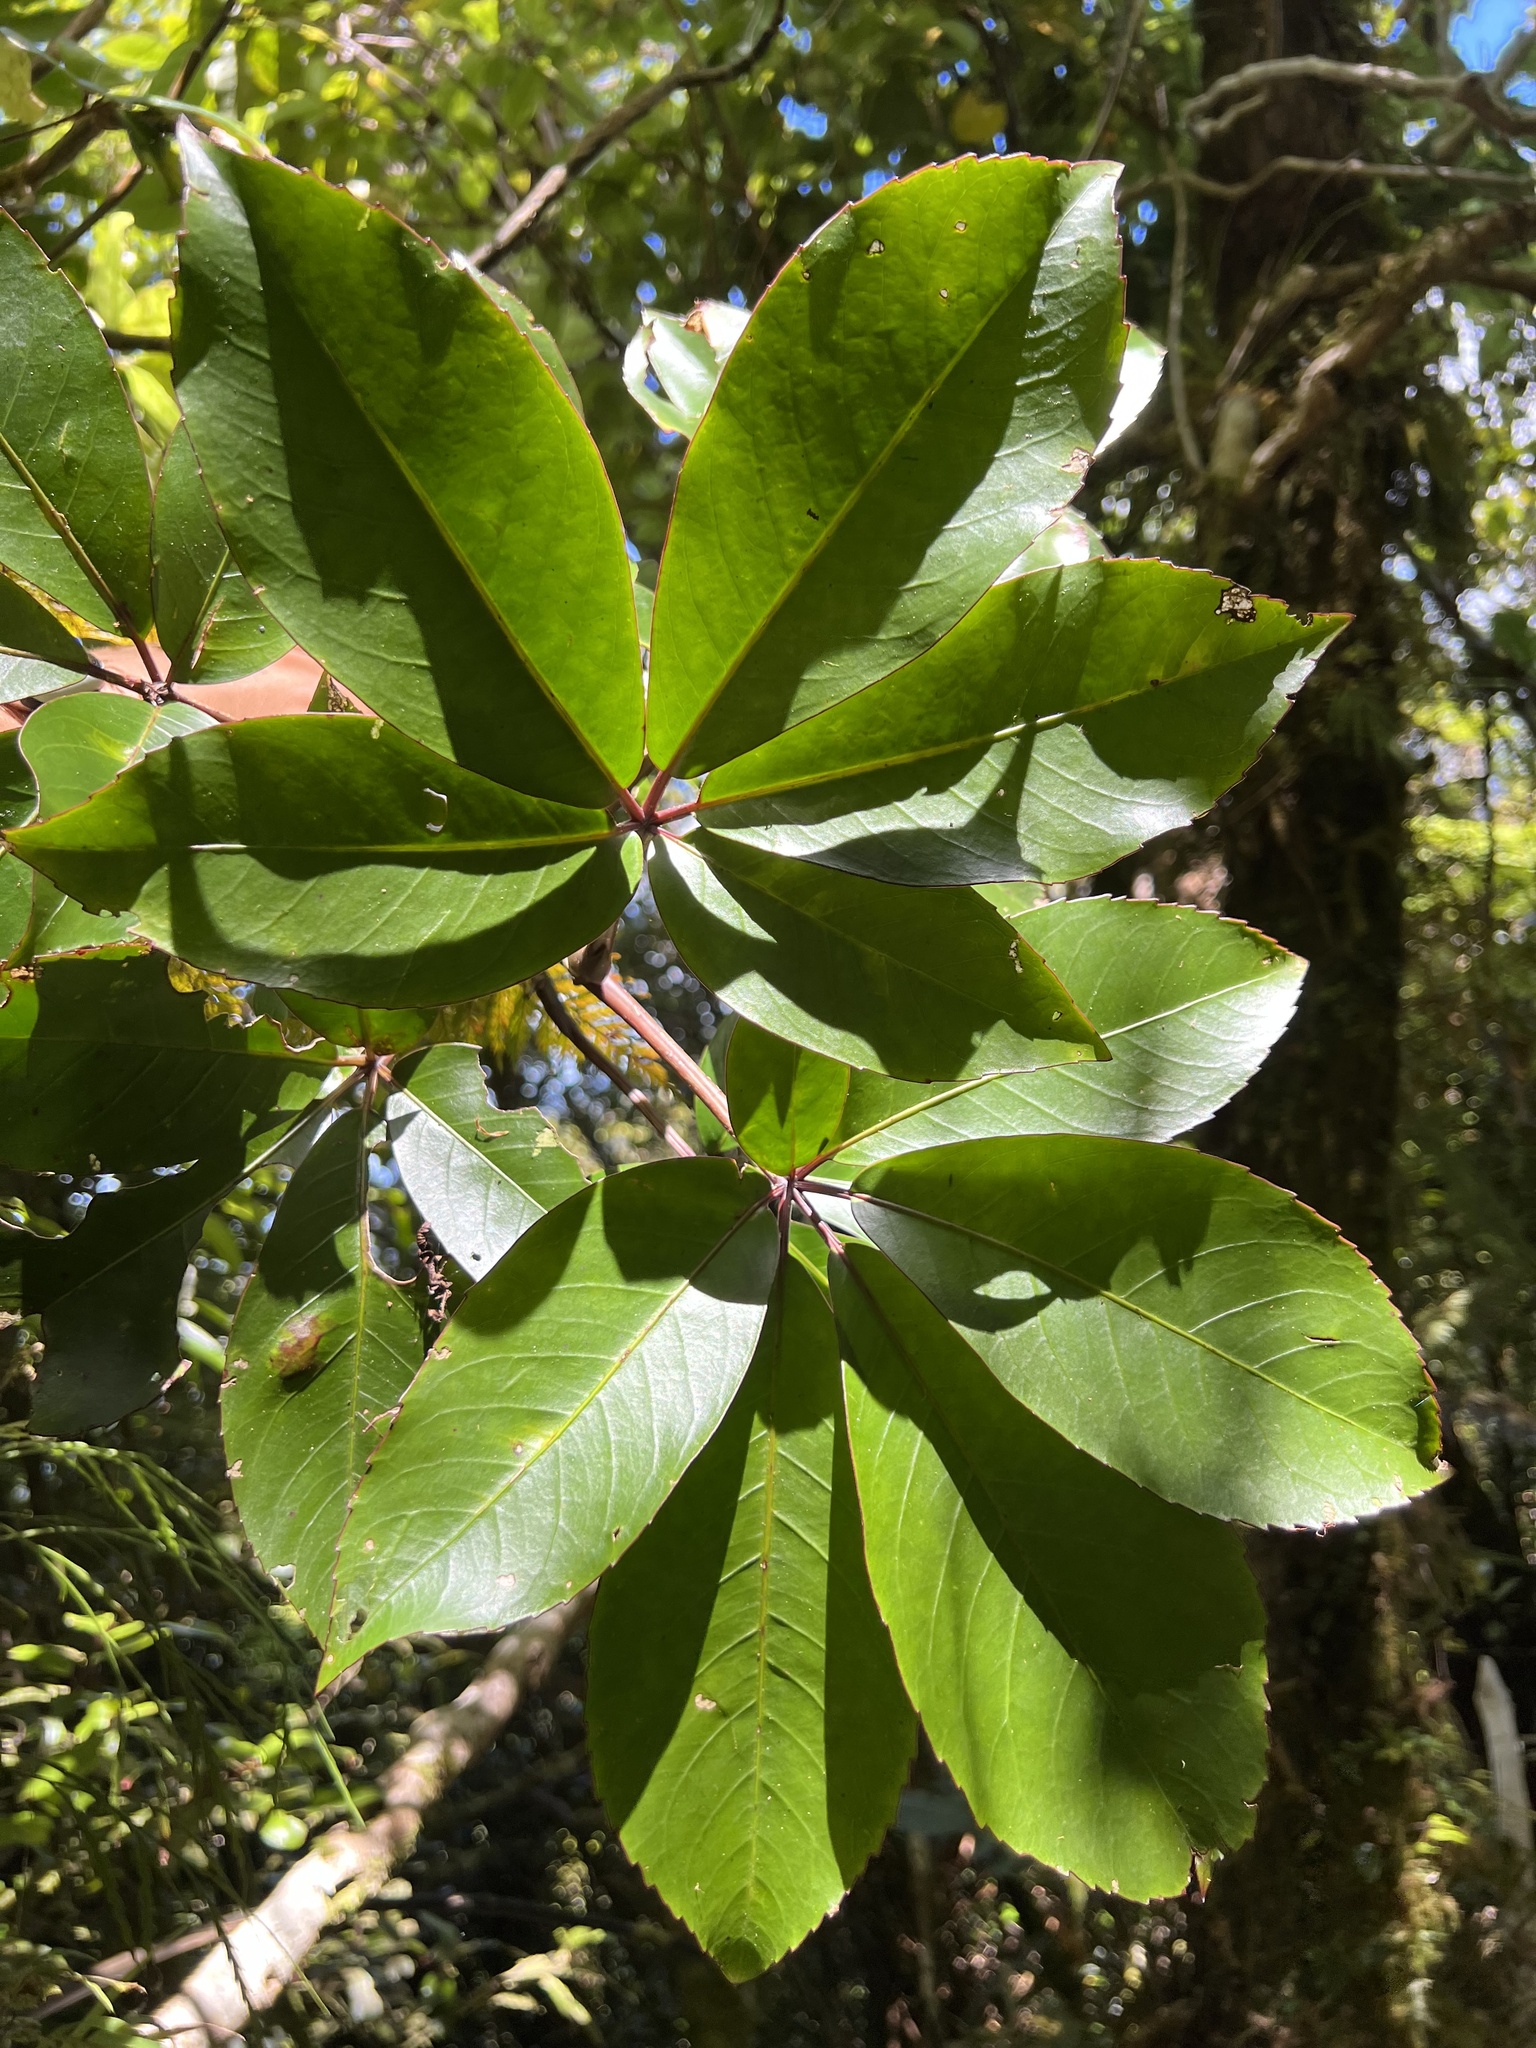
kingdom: Plantae
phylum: Tracheophyta
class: Magnoliopsida
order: Apiales
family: Araliaceae
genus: Neopanax
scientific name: Neopanax laetus
